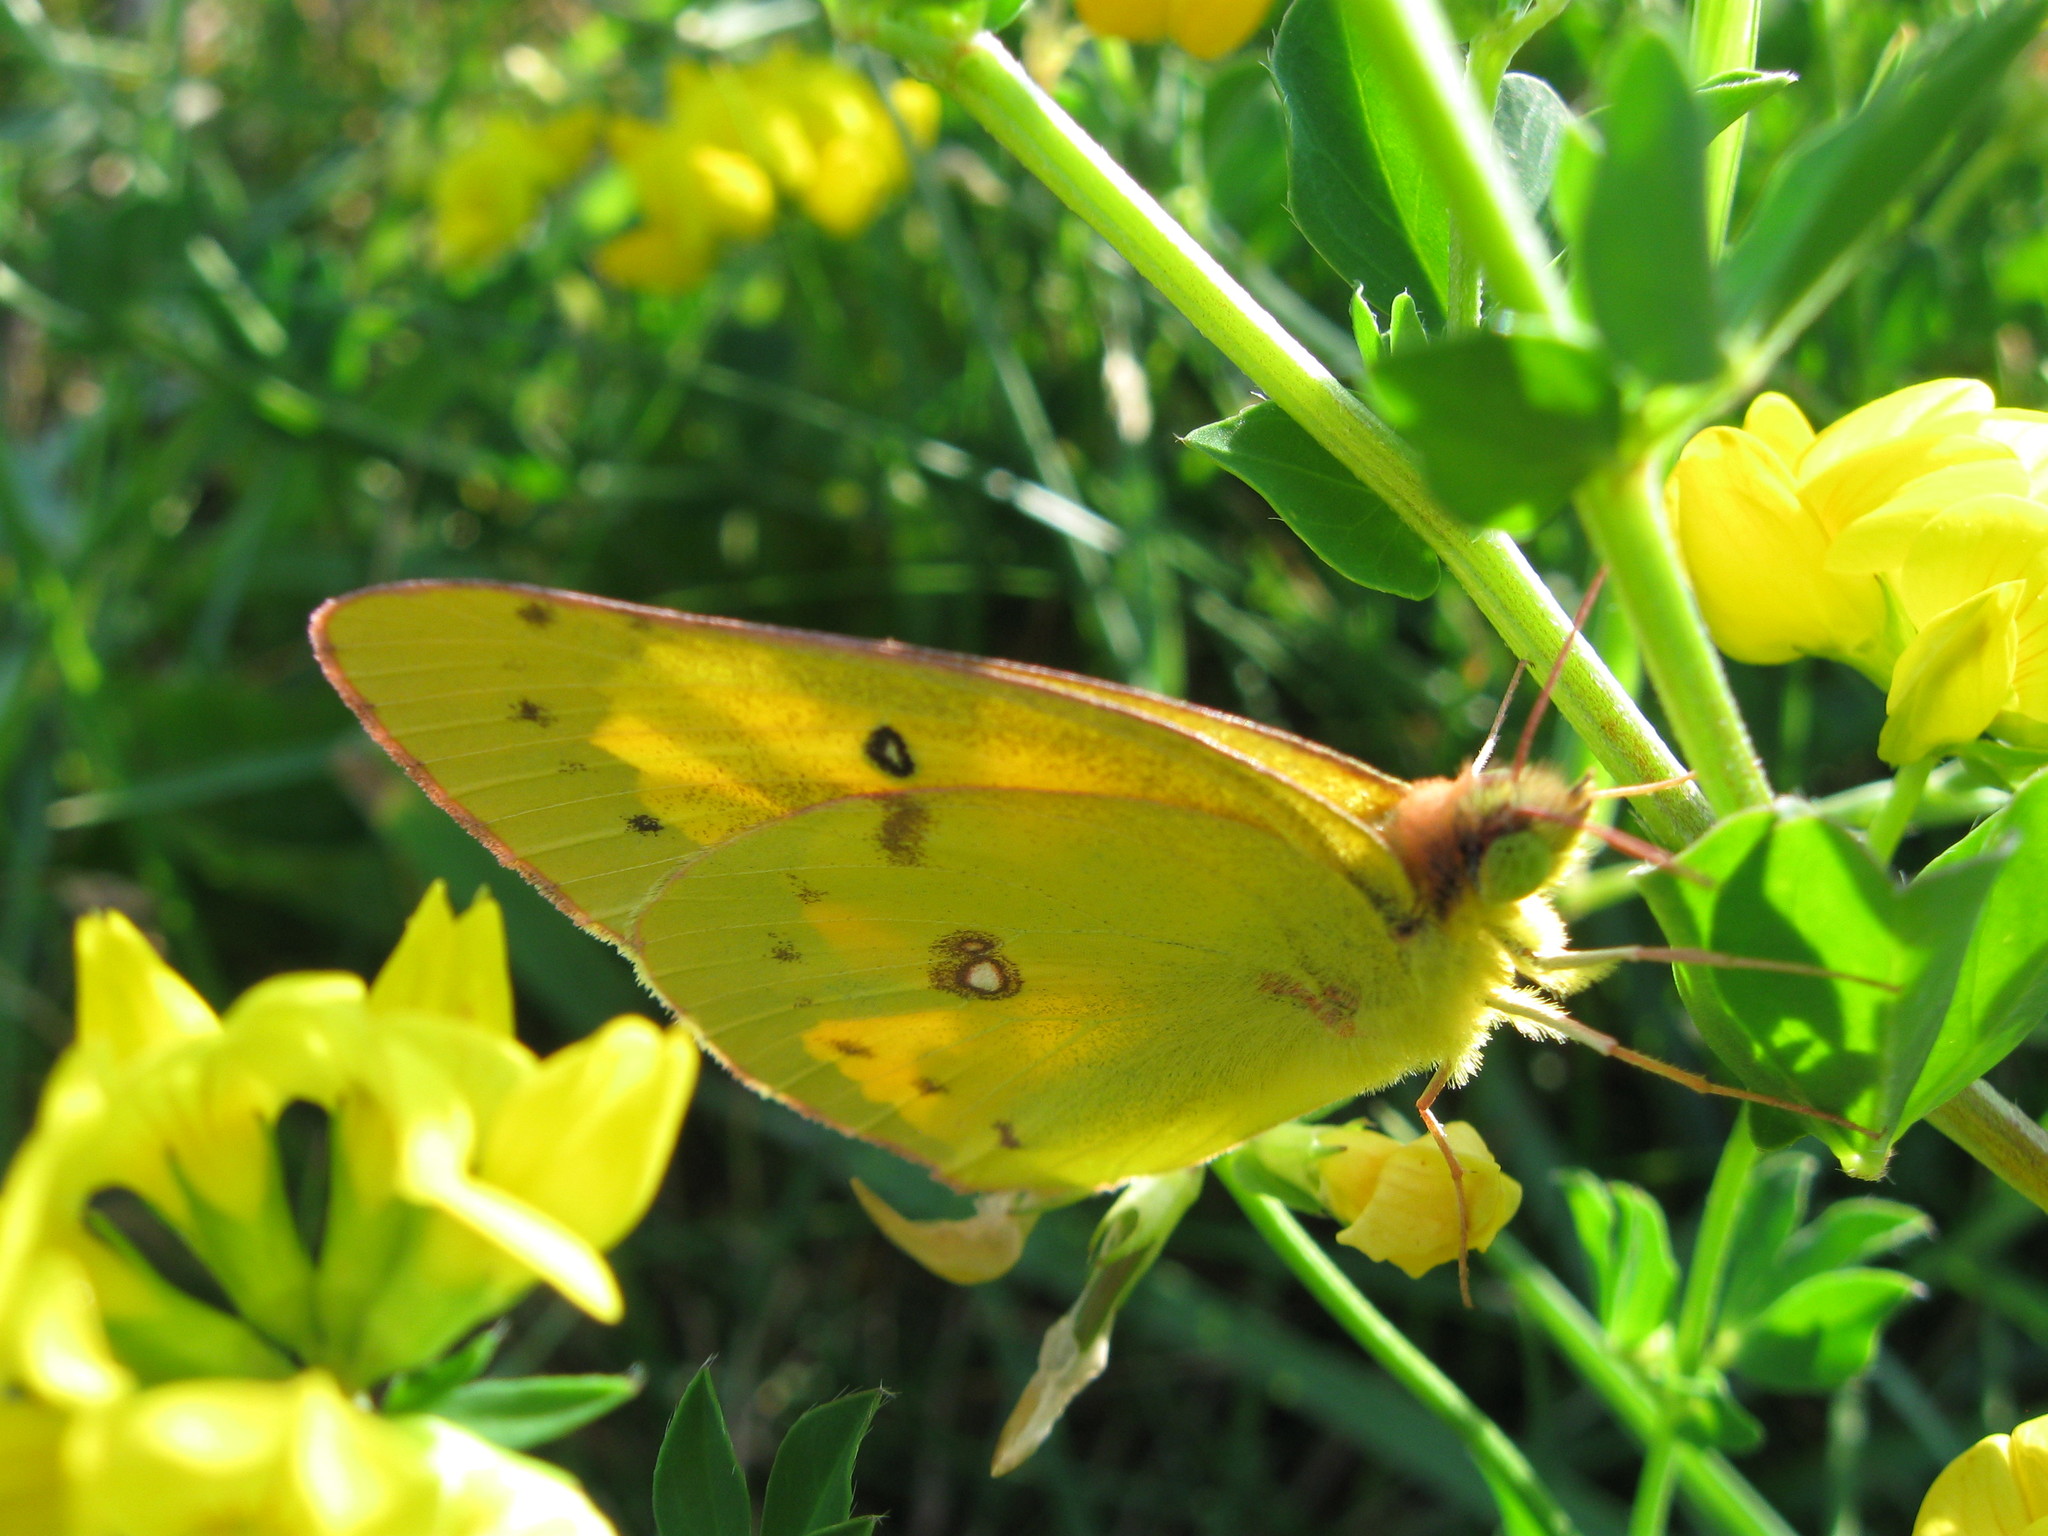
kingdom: Animalia
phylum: Arthropoda
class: Insecta
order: Lepidoptera
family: Pieridae
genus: Colias
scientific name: Colias philodice
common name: Clouded sulphur
